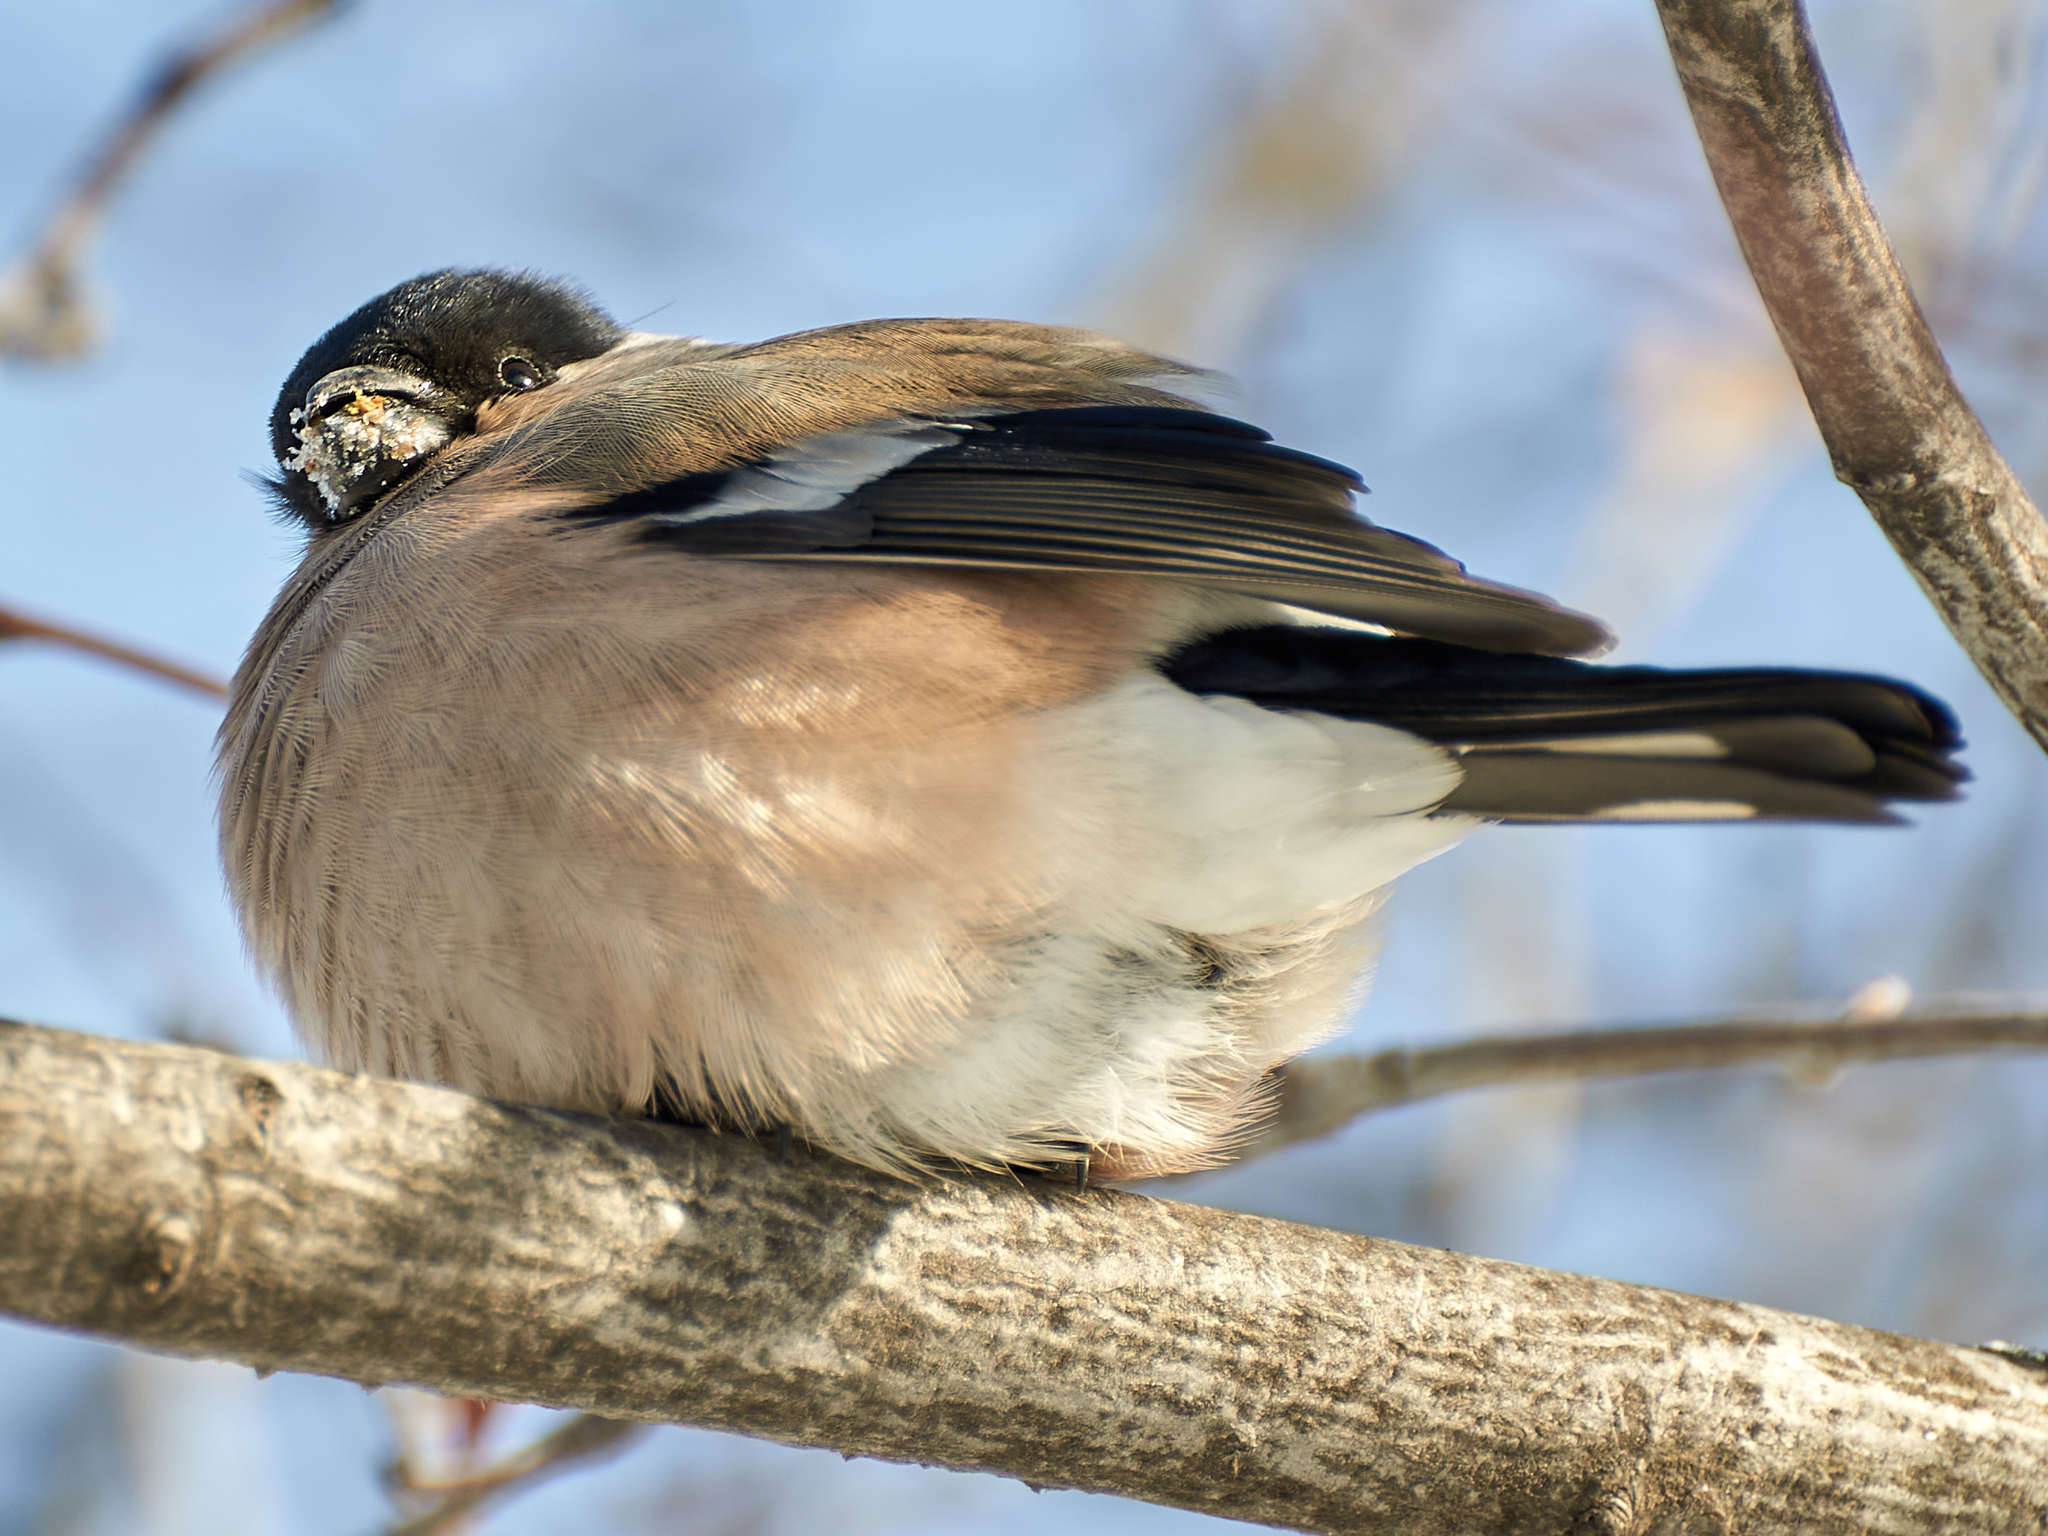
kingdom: Animalia
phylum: Chordata
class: Aves
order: Passeriformes
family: Fringillidae
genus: Pyrrhula
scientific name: Pyrrhula pyrrhula
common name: Eurasian bullfinch
